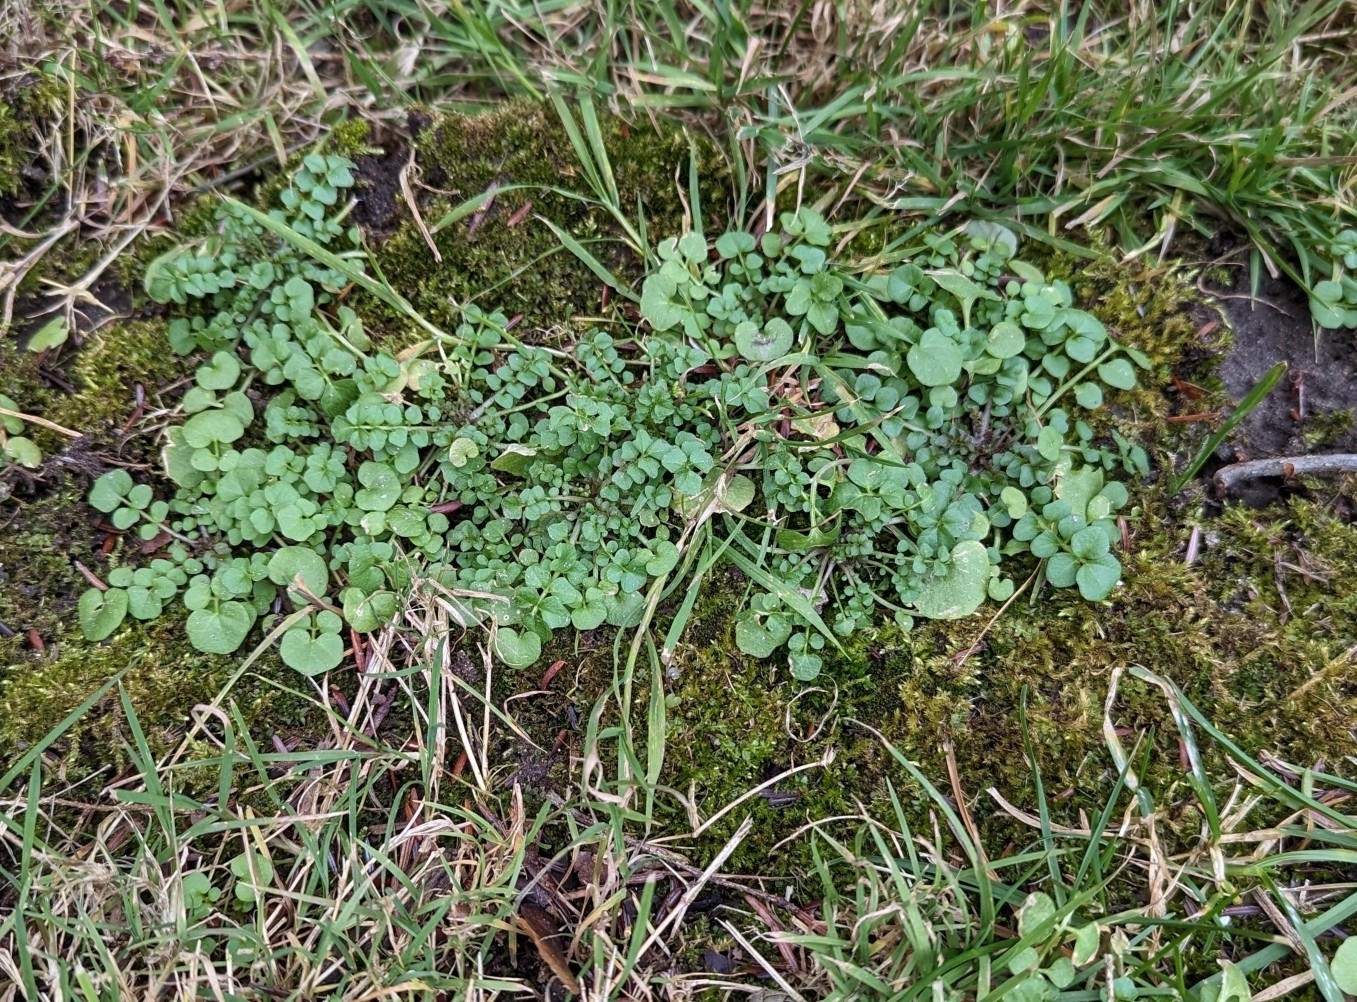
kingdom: Plantae
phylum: Tracheophyta
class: Magnoliopsida
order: Brassicales
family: Brassicaceae
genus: Cardamine
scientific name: Cardamine hirsuta
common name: Hairy bittercress
